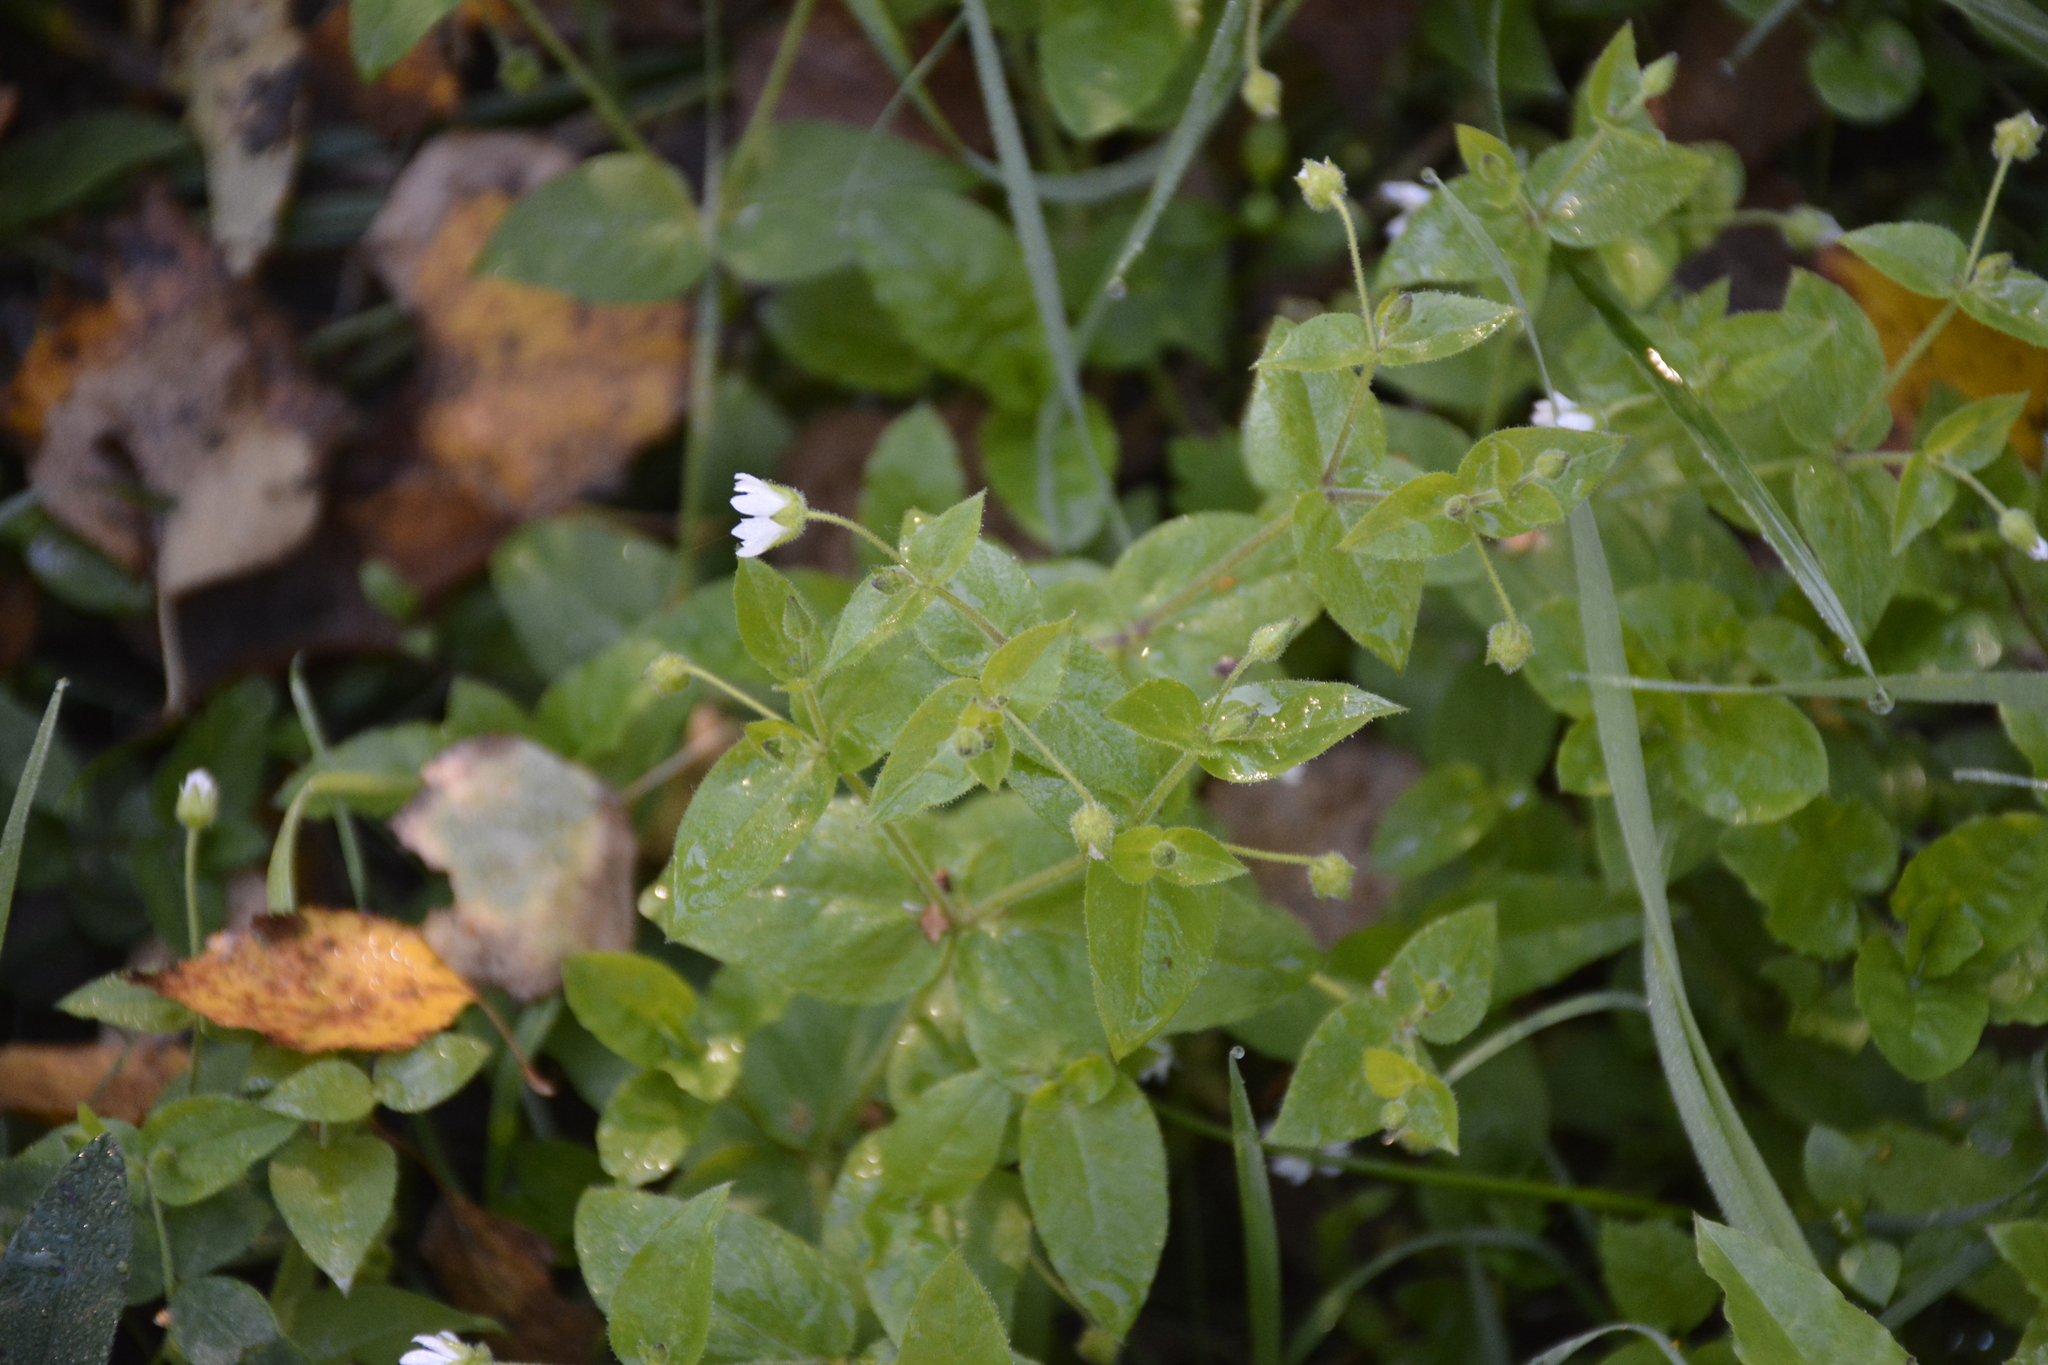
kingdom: Plantae
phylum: Tracheophyta
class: Magnoliopsida
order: Caryophyllales
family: Caryophyllaceae
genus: Stellaria
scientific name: Stellaria aquatica
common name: Water chickweed
